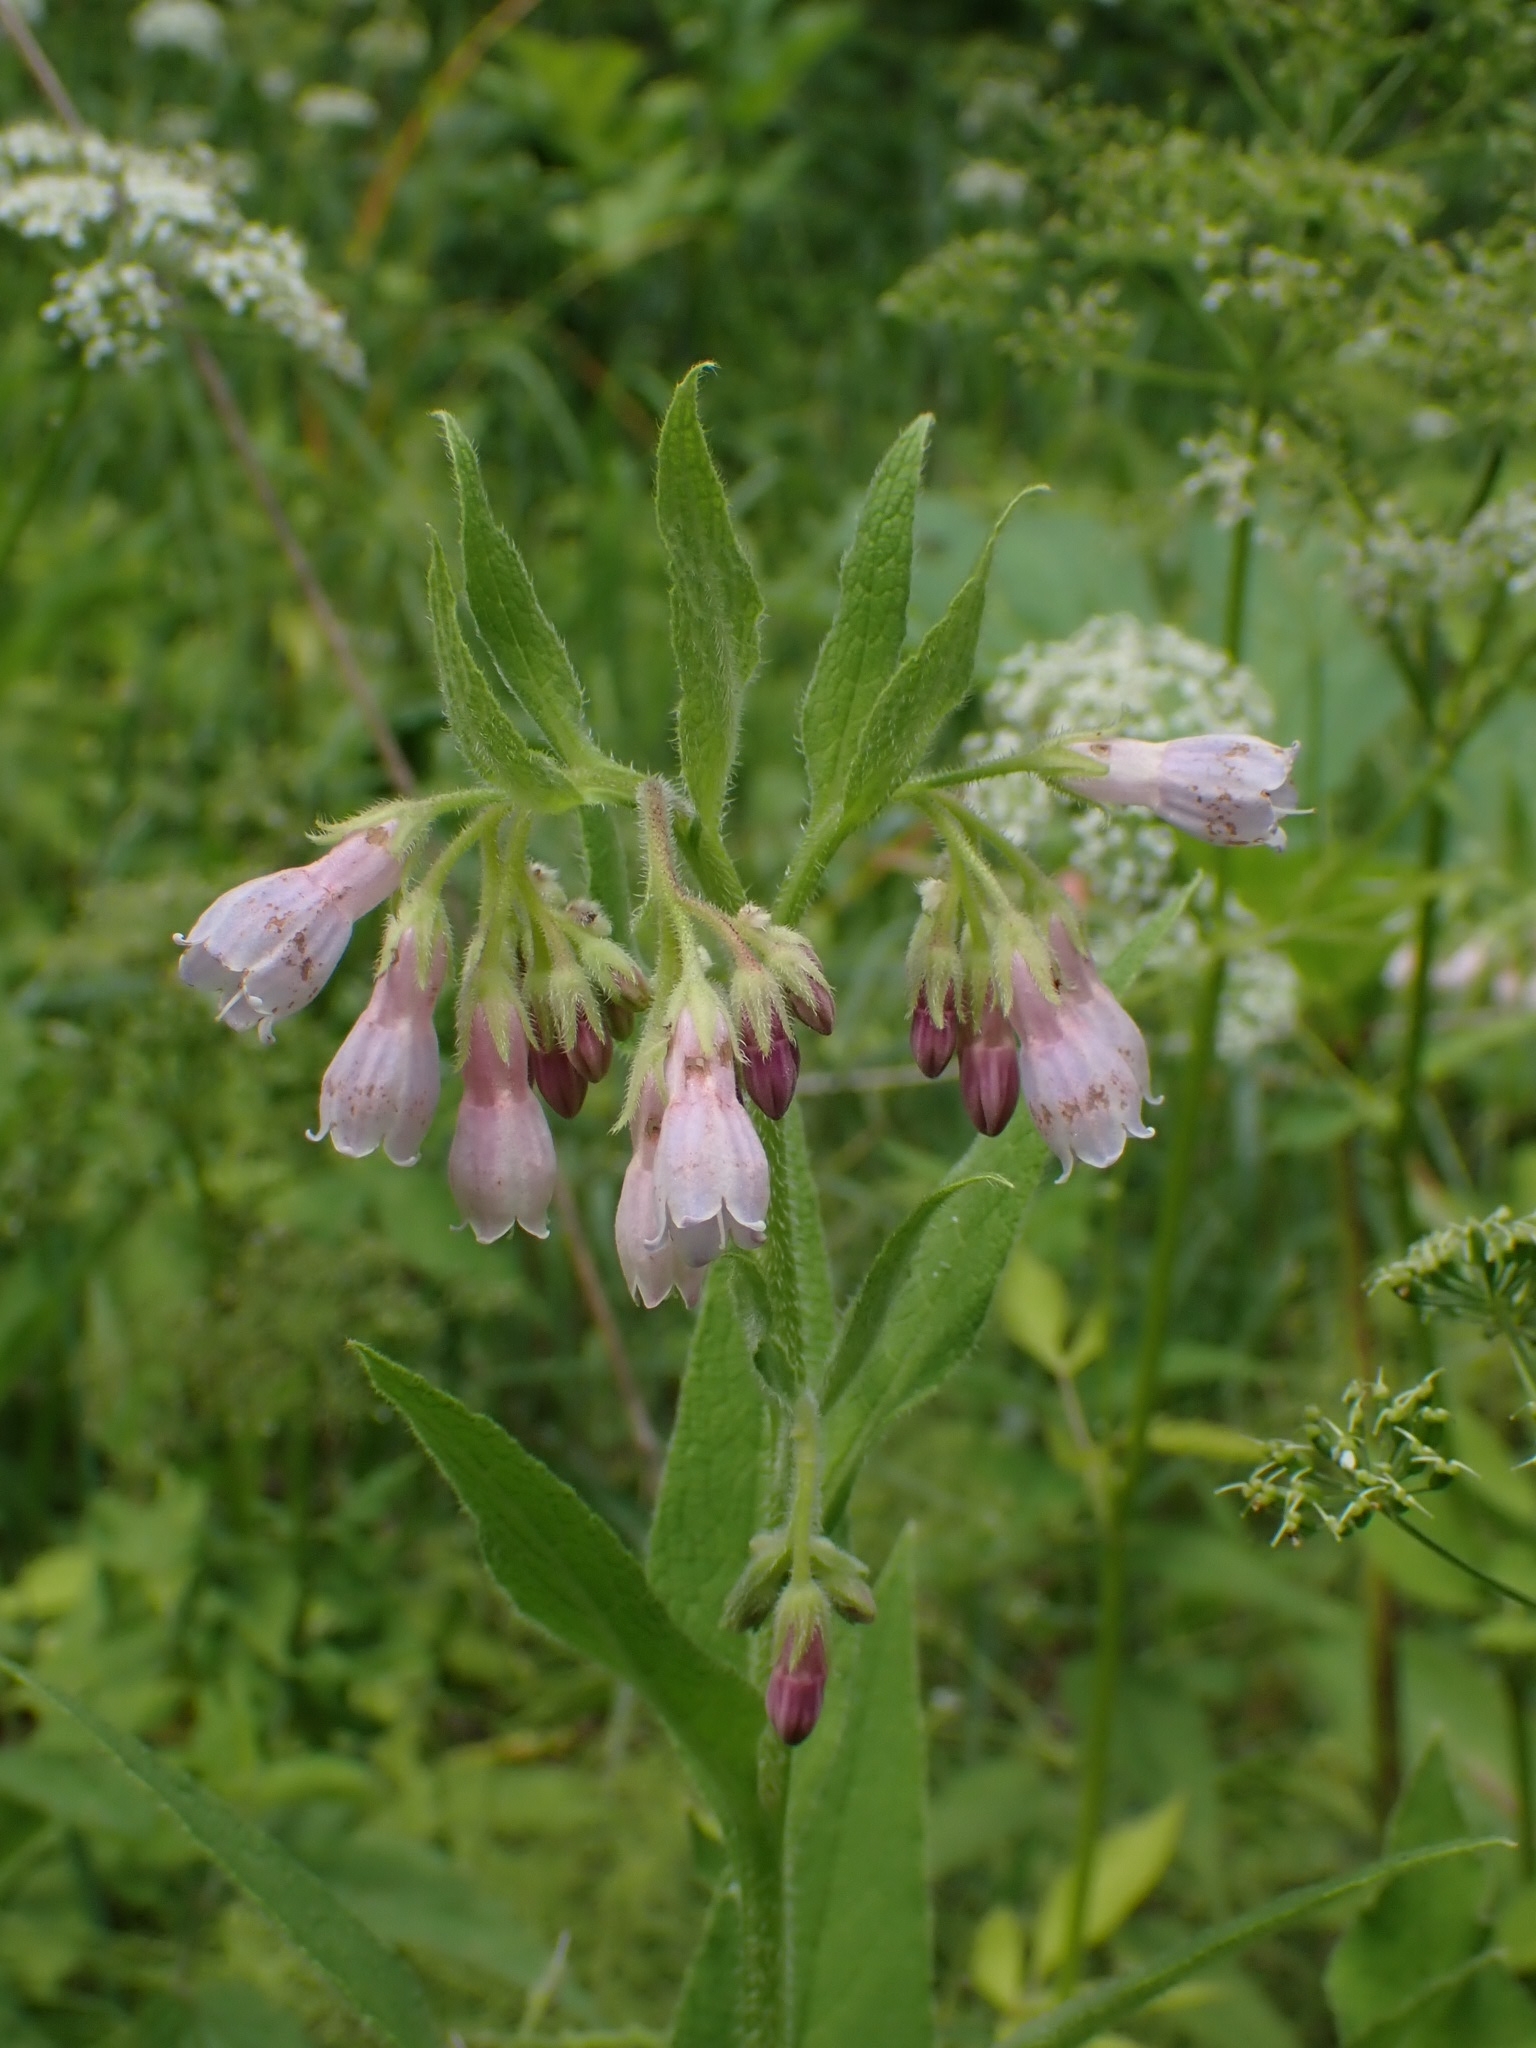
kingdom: Plantae
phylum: Tracheophyta
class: Magnoliopsida
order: Boraginales
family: Boraginaceae
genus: Symphytum
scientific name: Symphytum officinale
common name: Common comfrey
